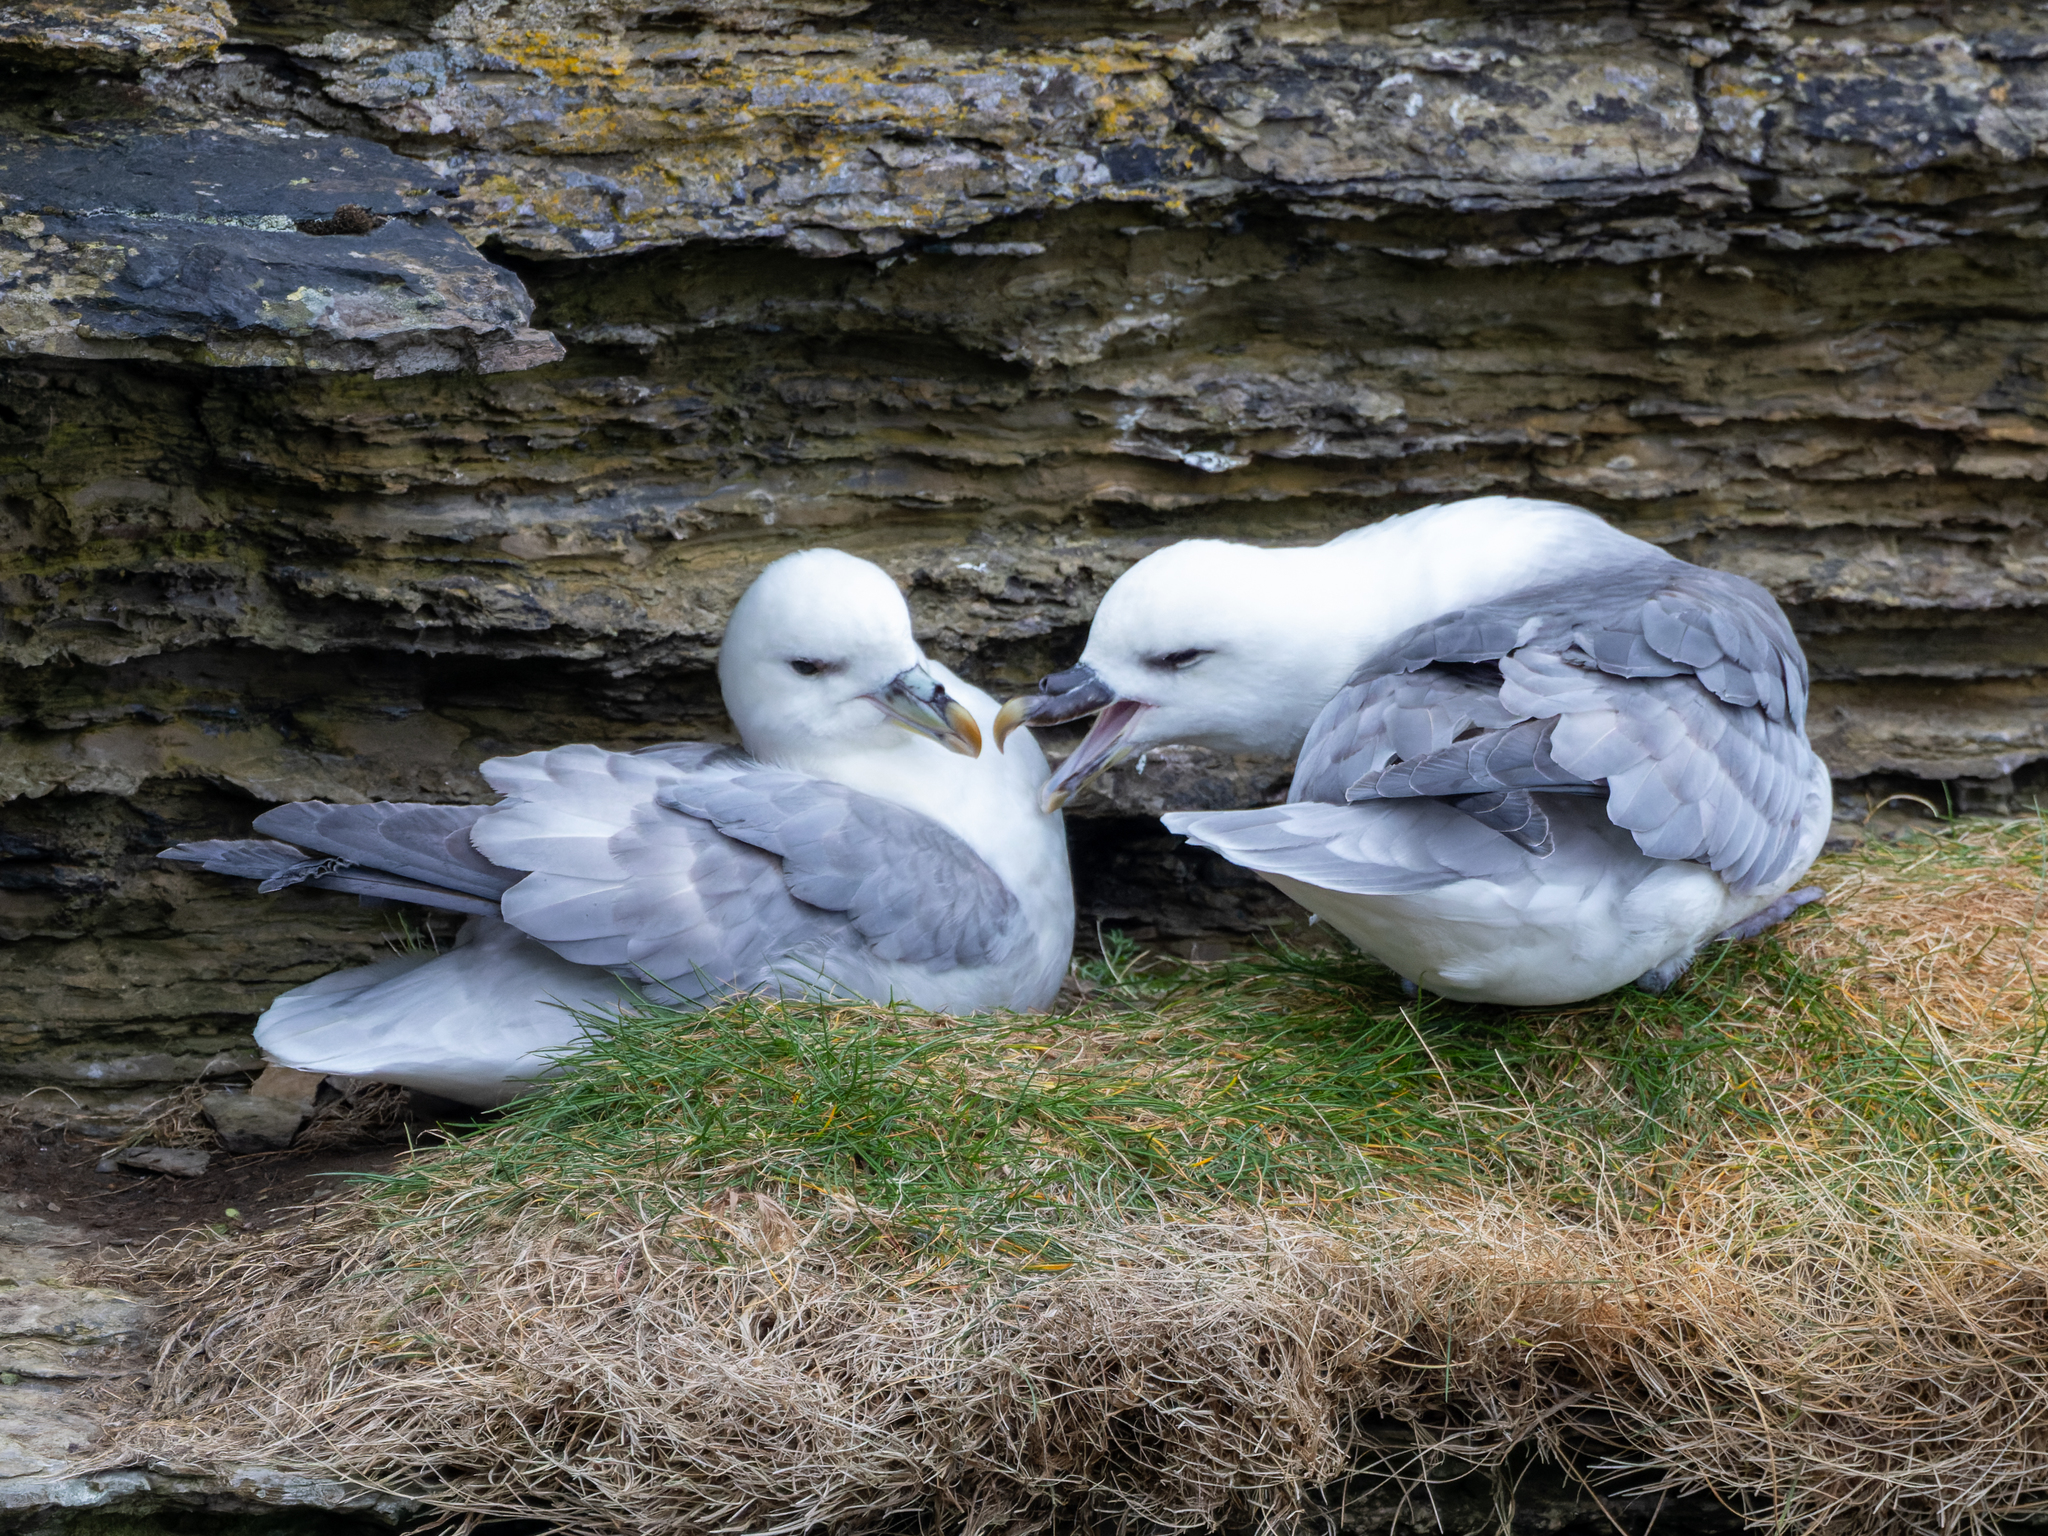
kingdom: Animalia
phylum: Chordata
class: Aves
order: Procellariiformes
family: Procellariidae
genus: Fulmarus
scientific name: Fulmarus glacialis
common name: Northern fulmar
